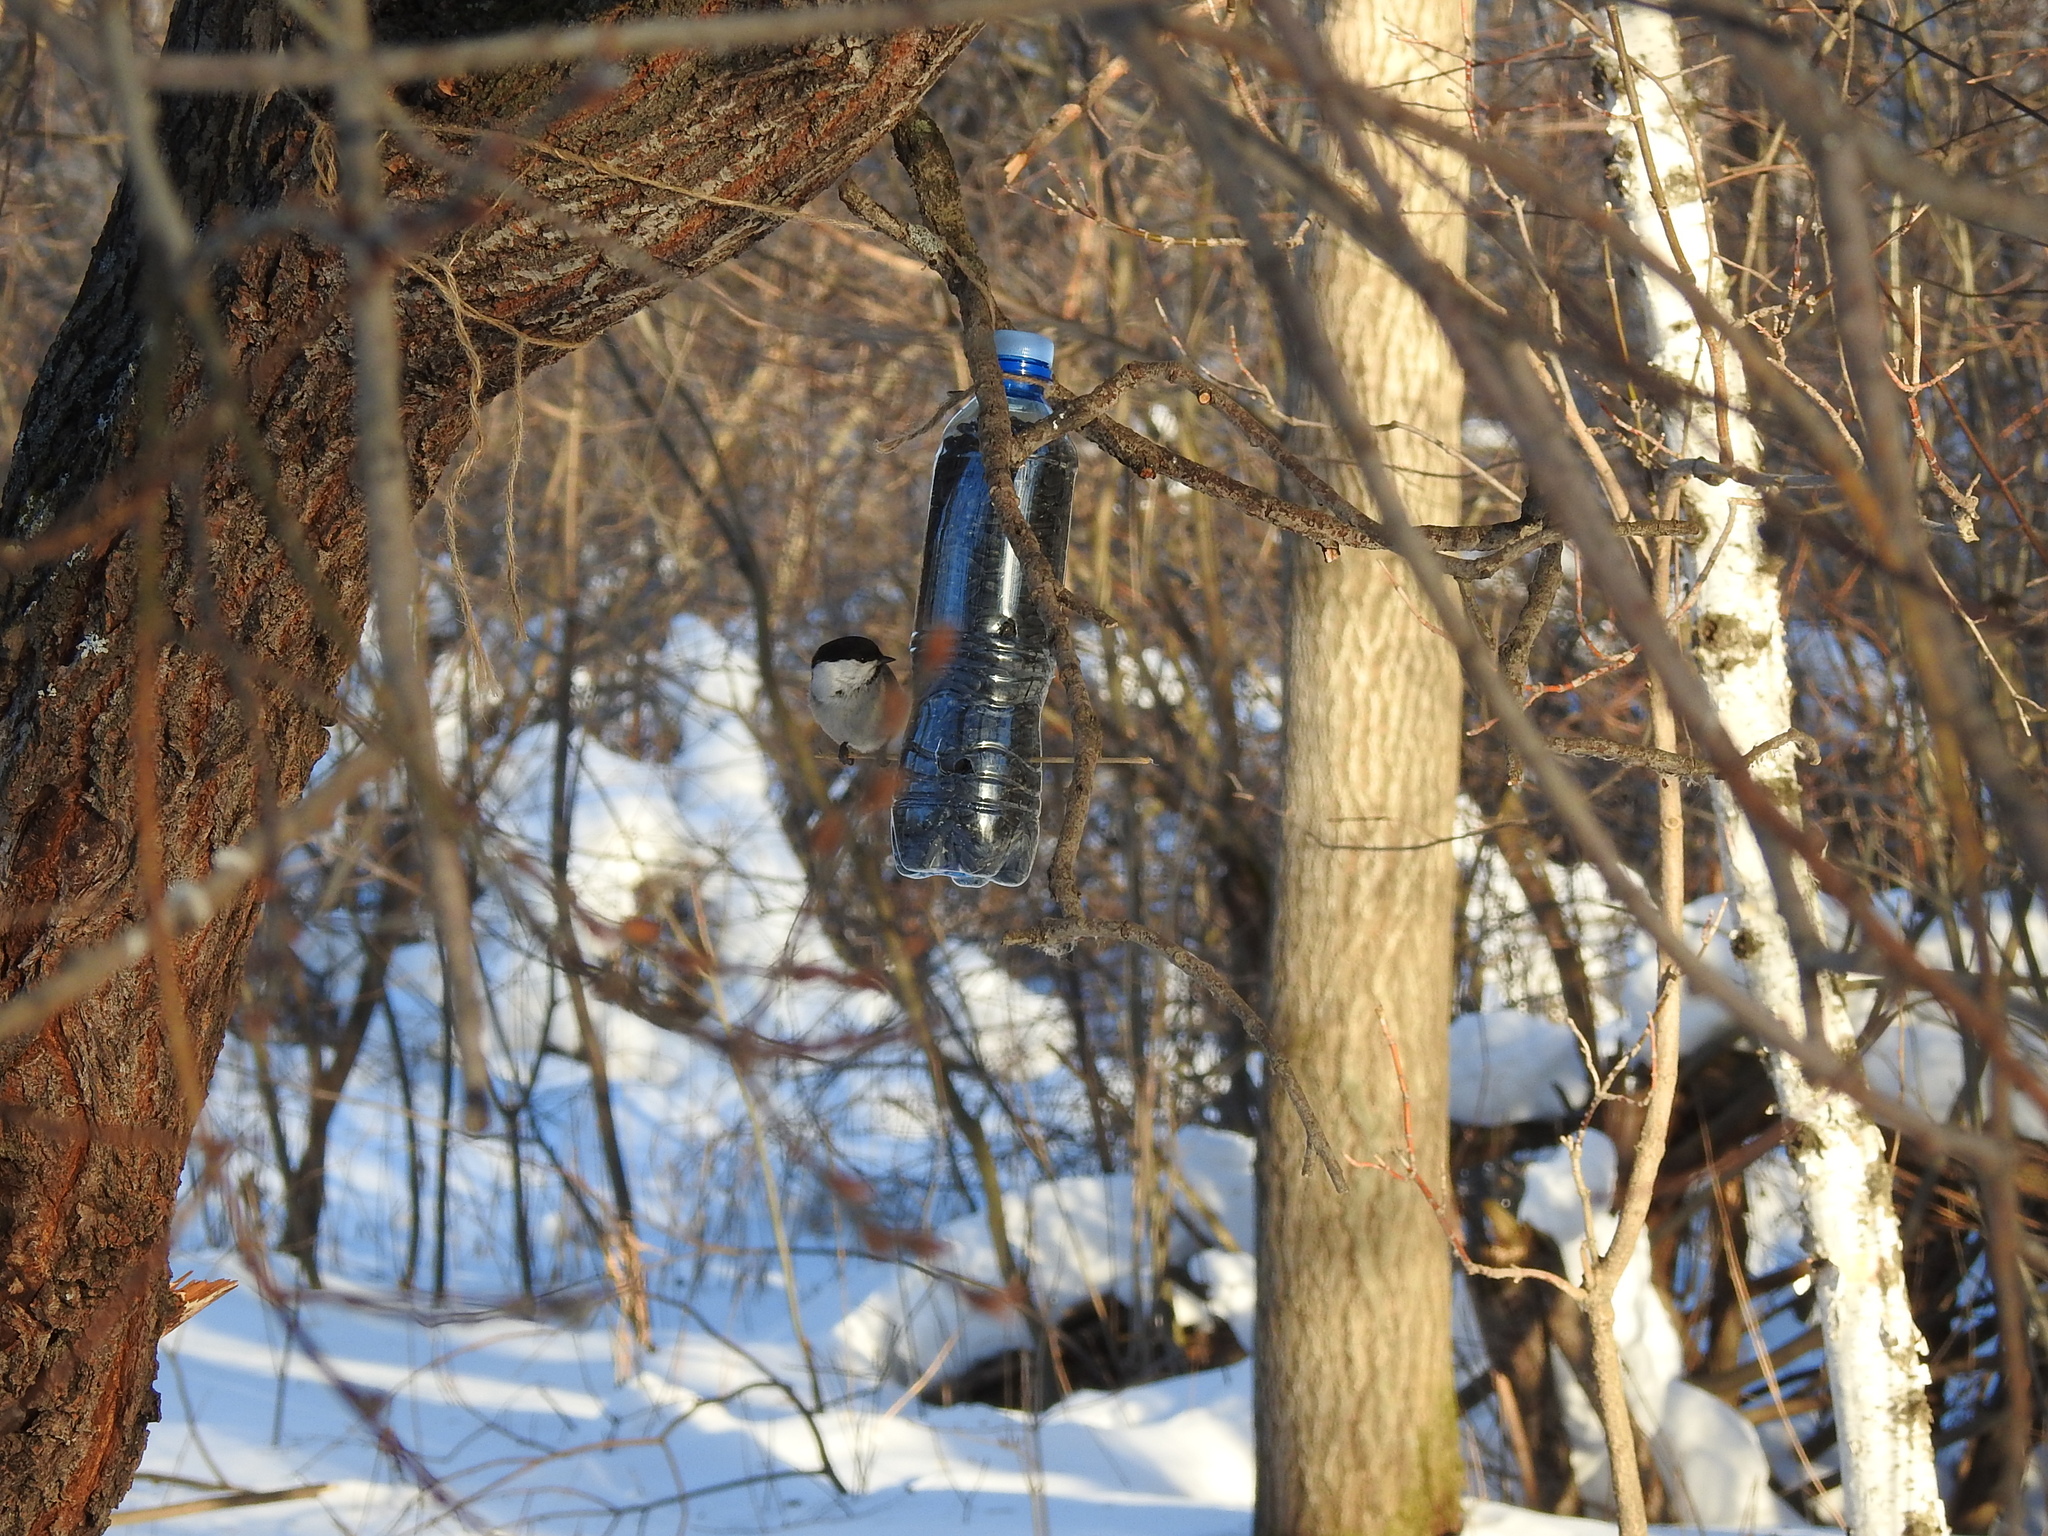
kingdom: Animalia
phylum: Chordata
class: Aves
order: Passeriformes
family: Paridae
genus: Poecile
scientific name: Poecile montanus
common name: Willow tit
